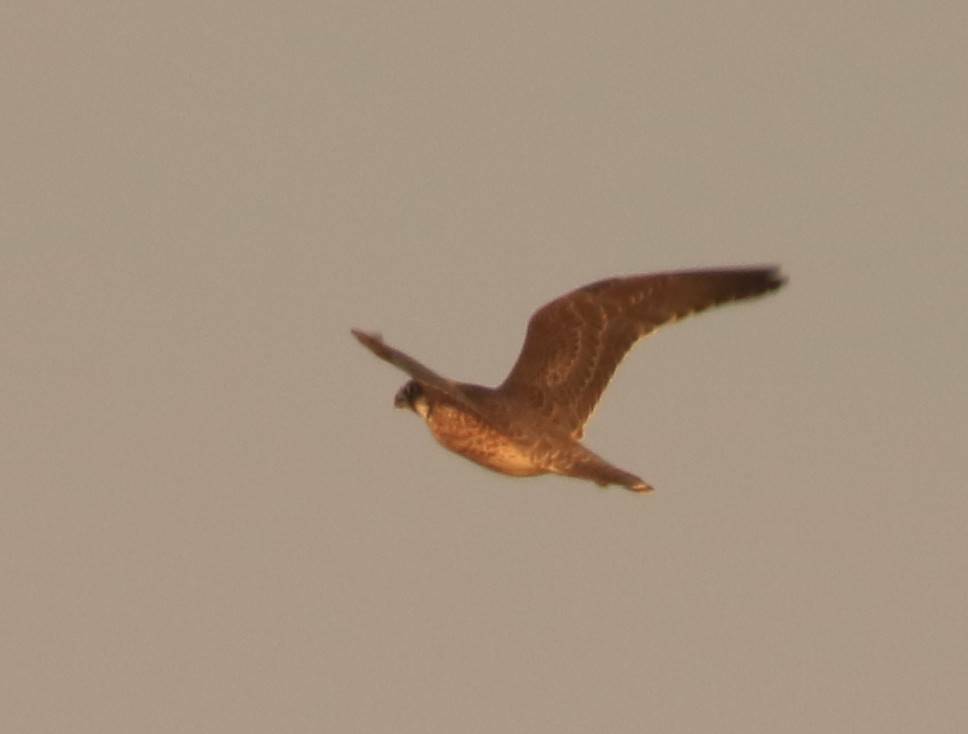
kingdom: Animalia
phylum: Chordata
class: Aves
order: Falconiformes
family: Falconidae
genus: Falco
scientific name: Falco biarmicus
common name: Lanner falcon
